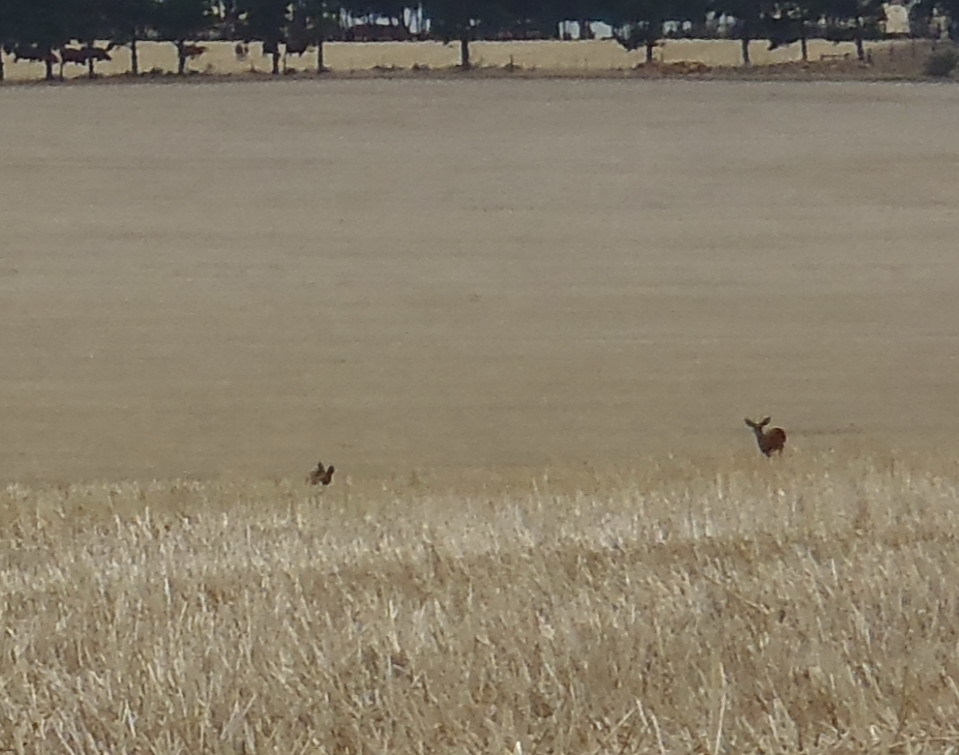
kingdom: Animalia
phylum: Chordata
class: Mammalia
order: Artiodactyla
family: Bovidae
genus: Raphicerus
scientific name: Raphicerus campestris
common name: Steenbok
